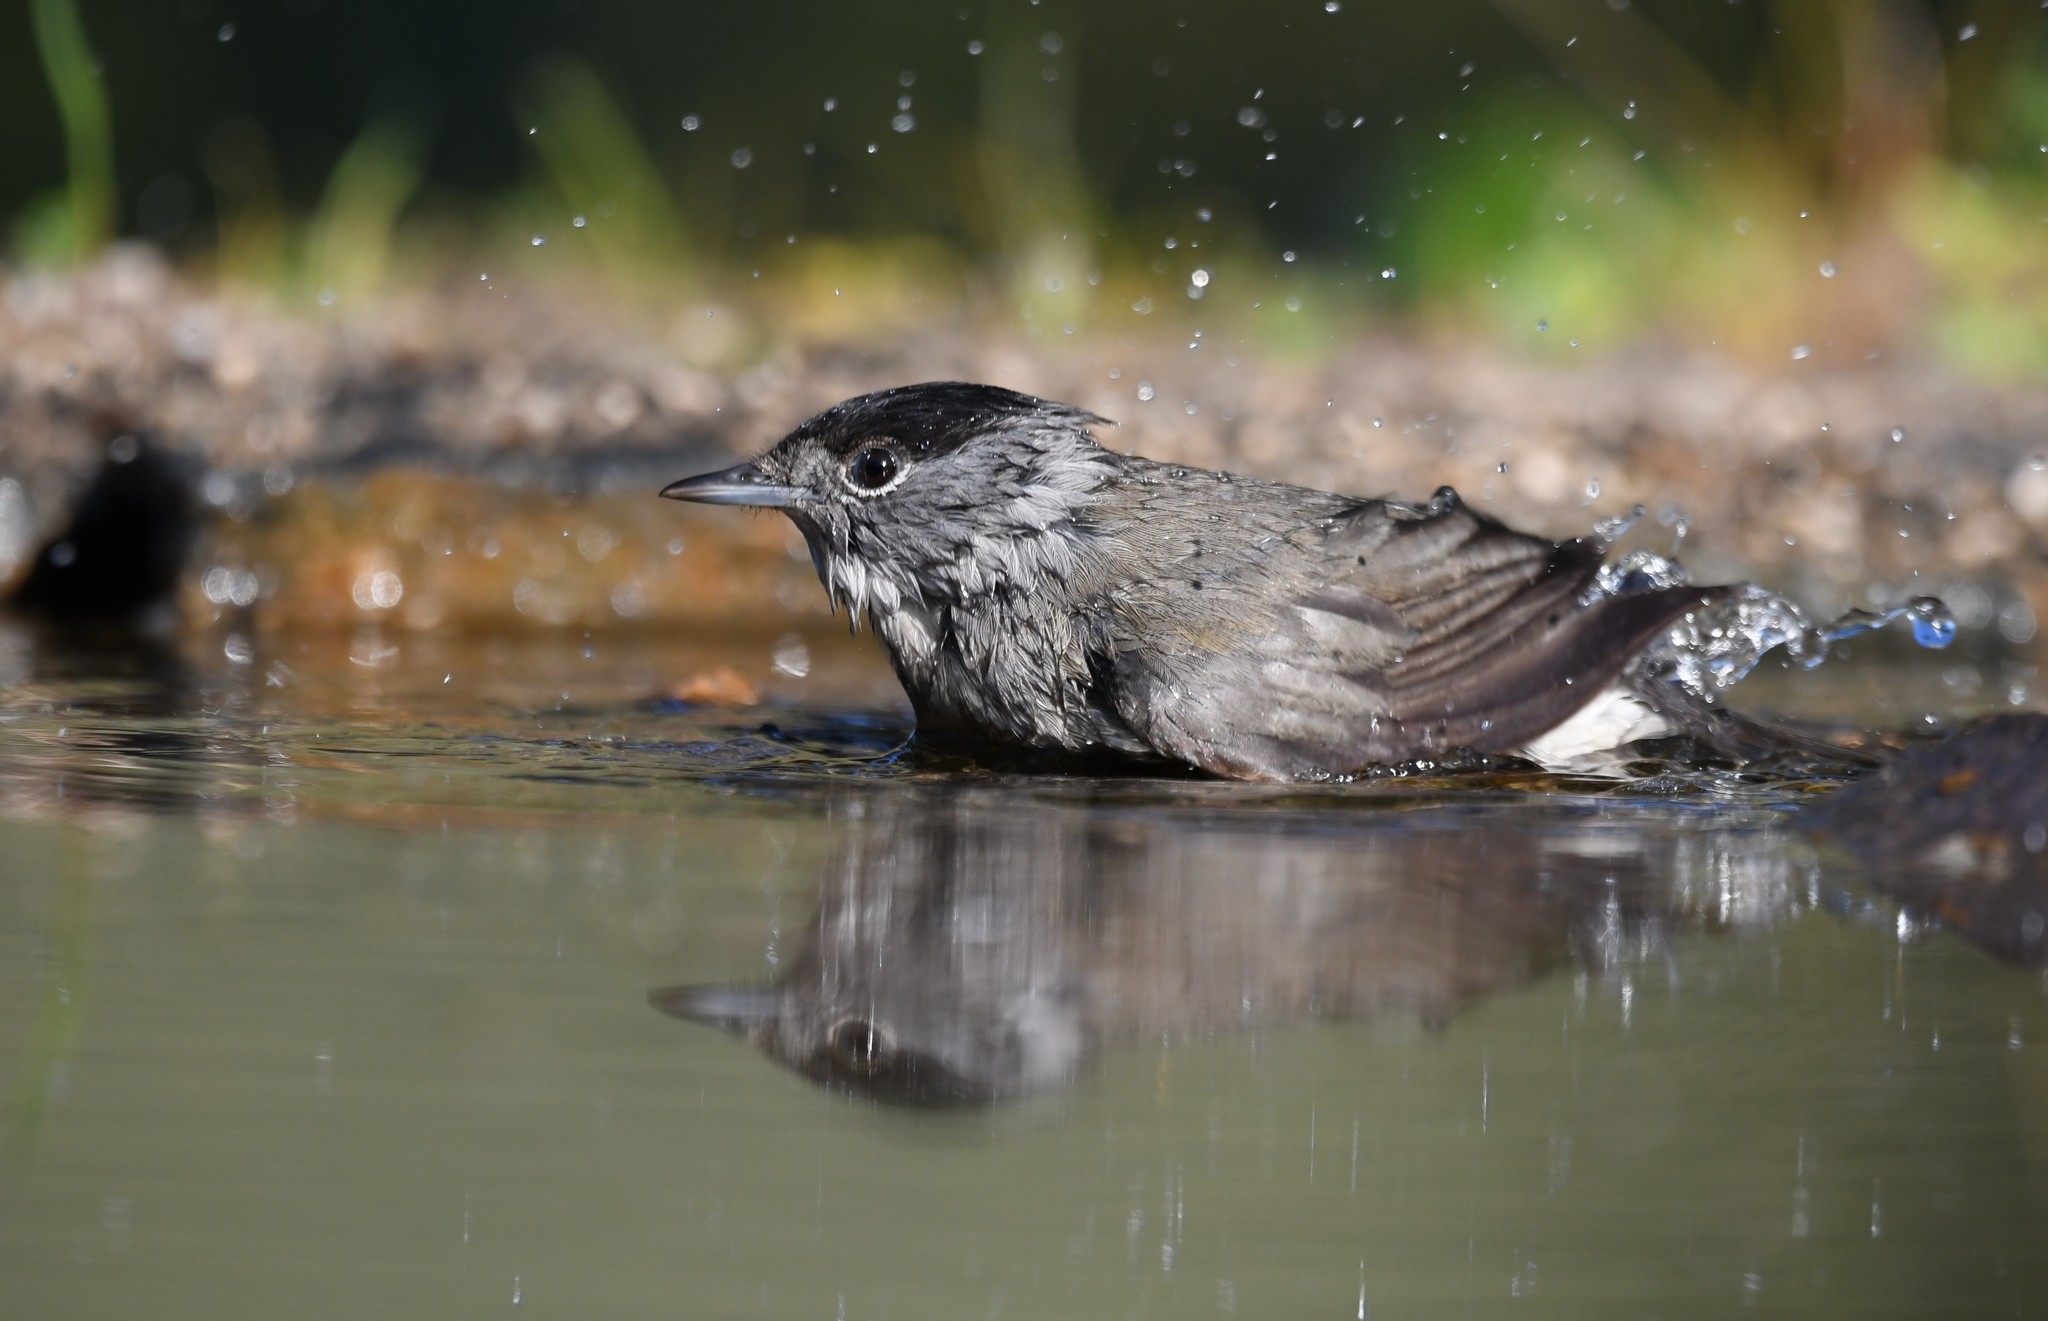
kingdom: Animalia
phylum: Chordata
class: Aves
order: Passeriformes
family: Sylviidae
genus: Sylvia
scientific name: Sylvia atricapilla
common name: Eurasian blackcap
